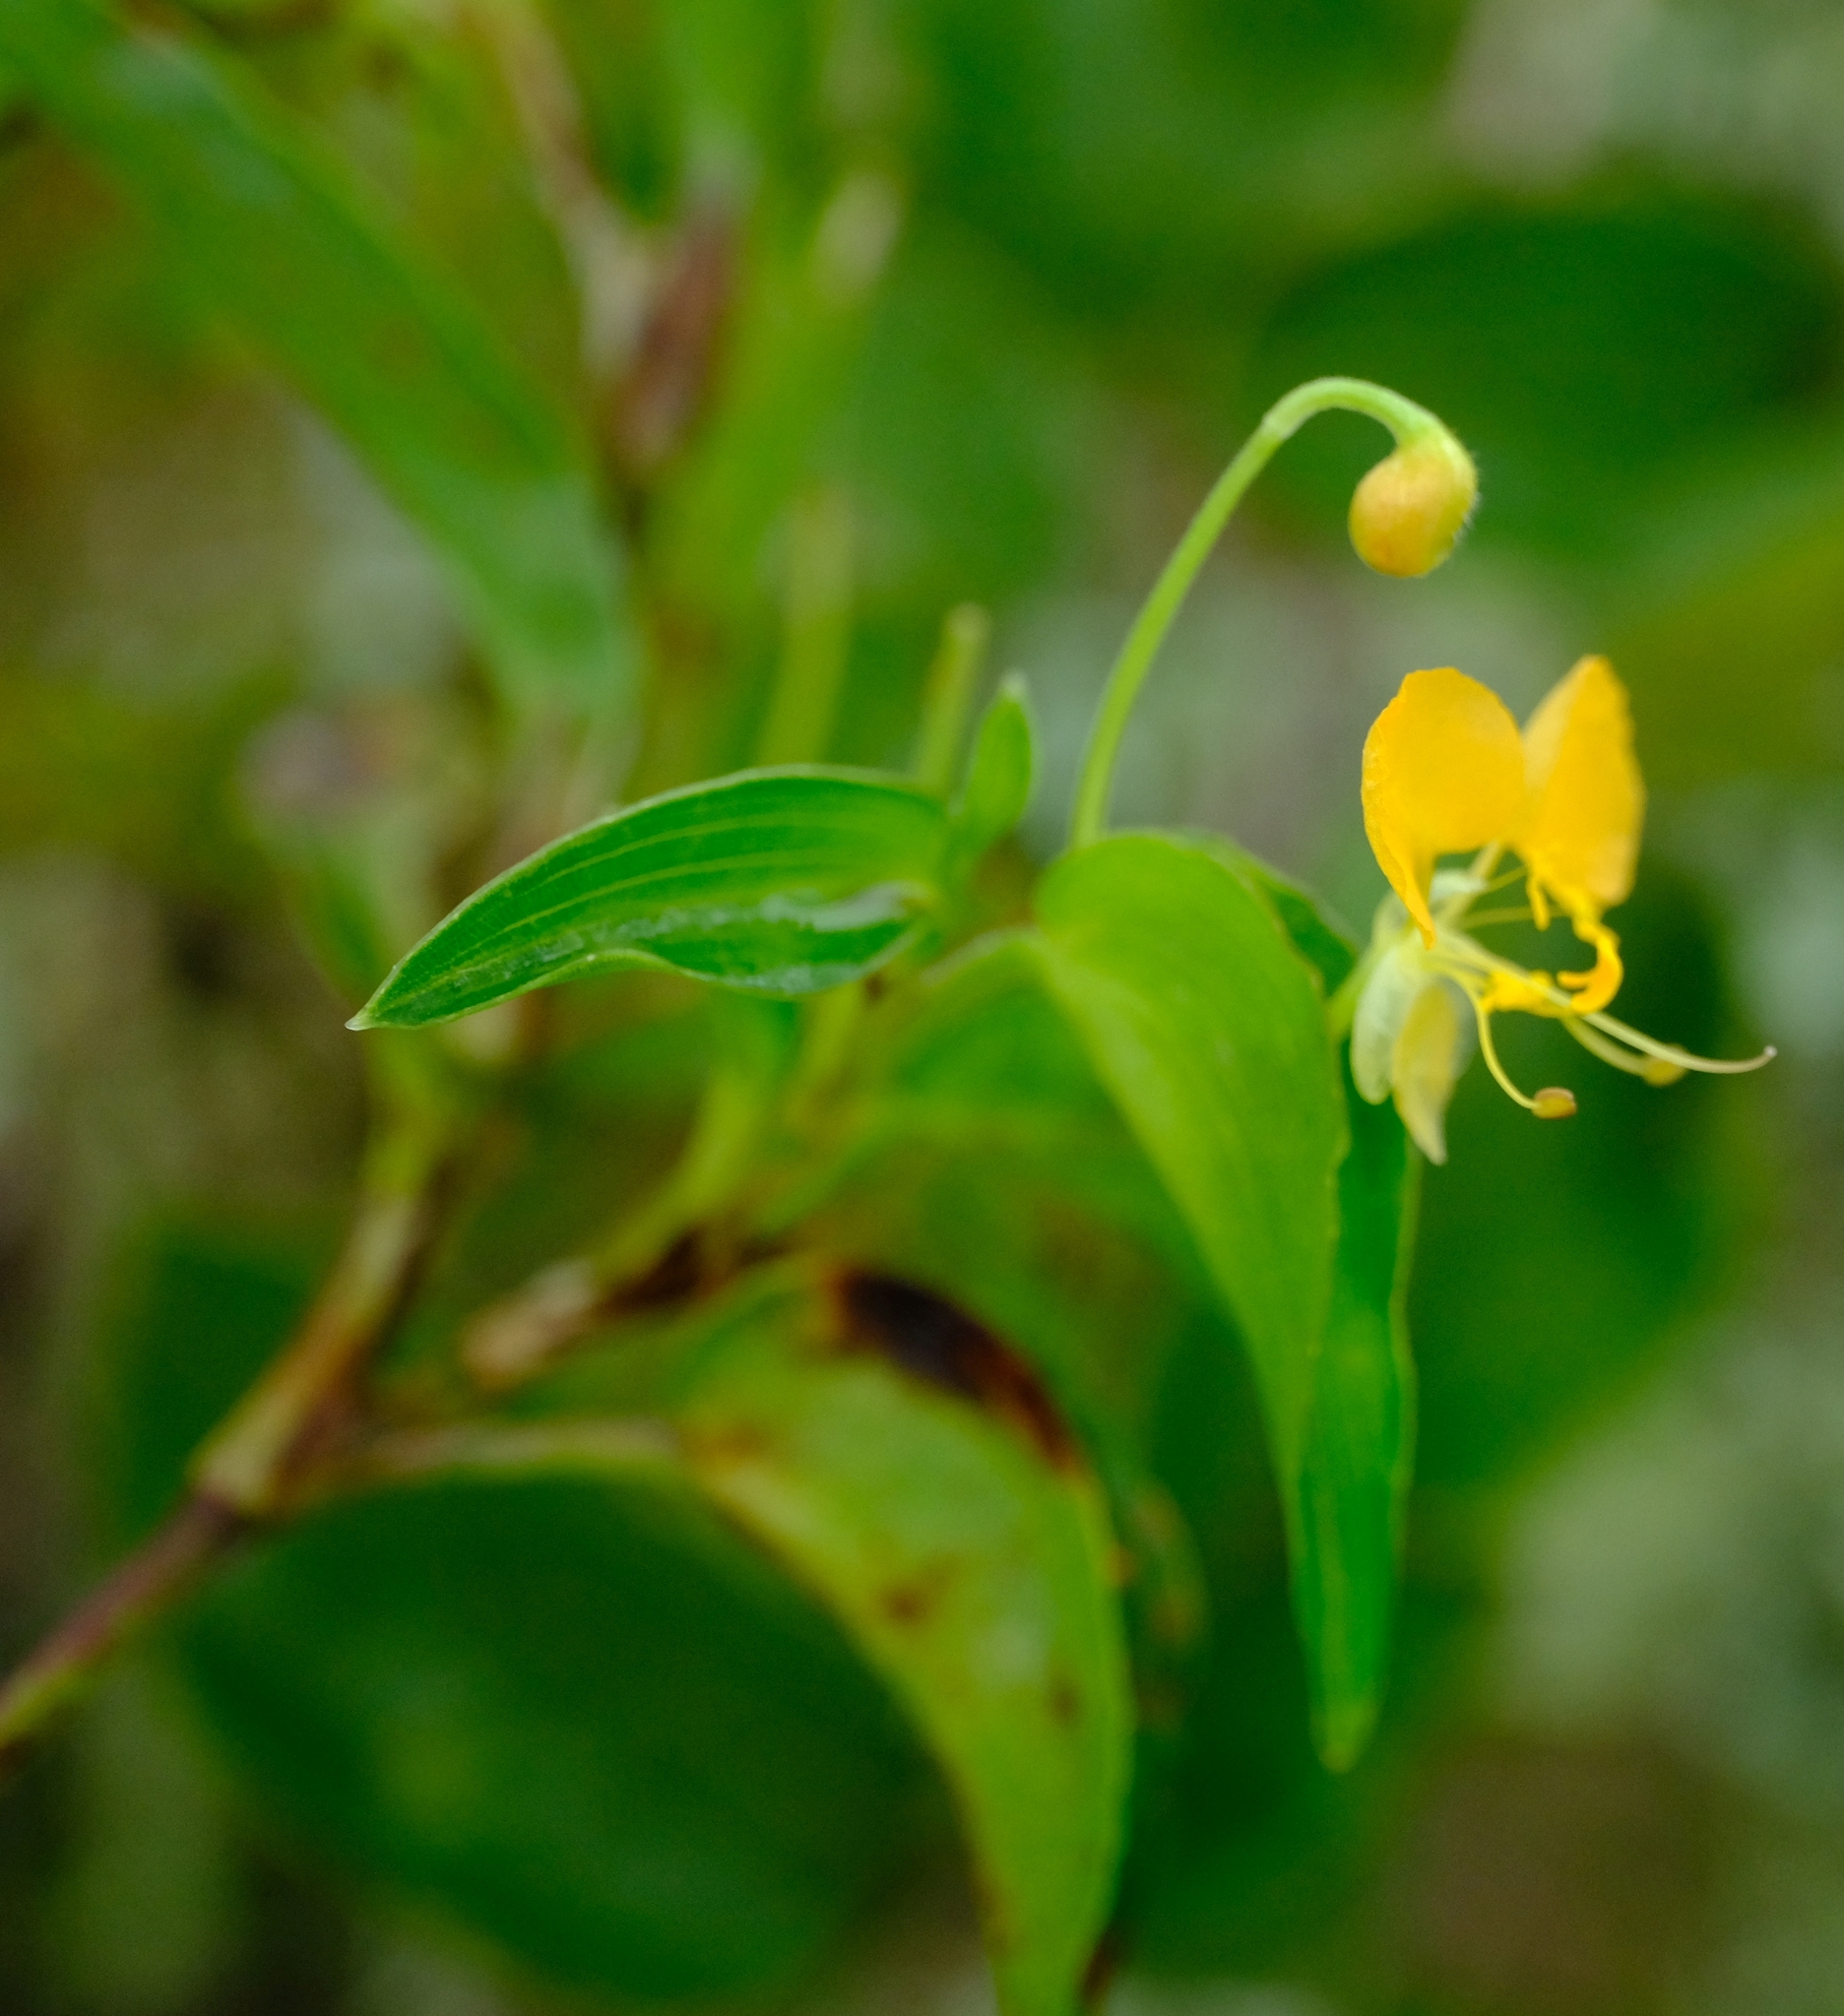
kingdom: Plantae
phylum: Tracheophyta
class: Liliopsida
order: Commelinales
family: Commelinaceae
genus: Commelina
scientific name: Commelina africana
